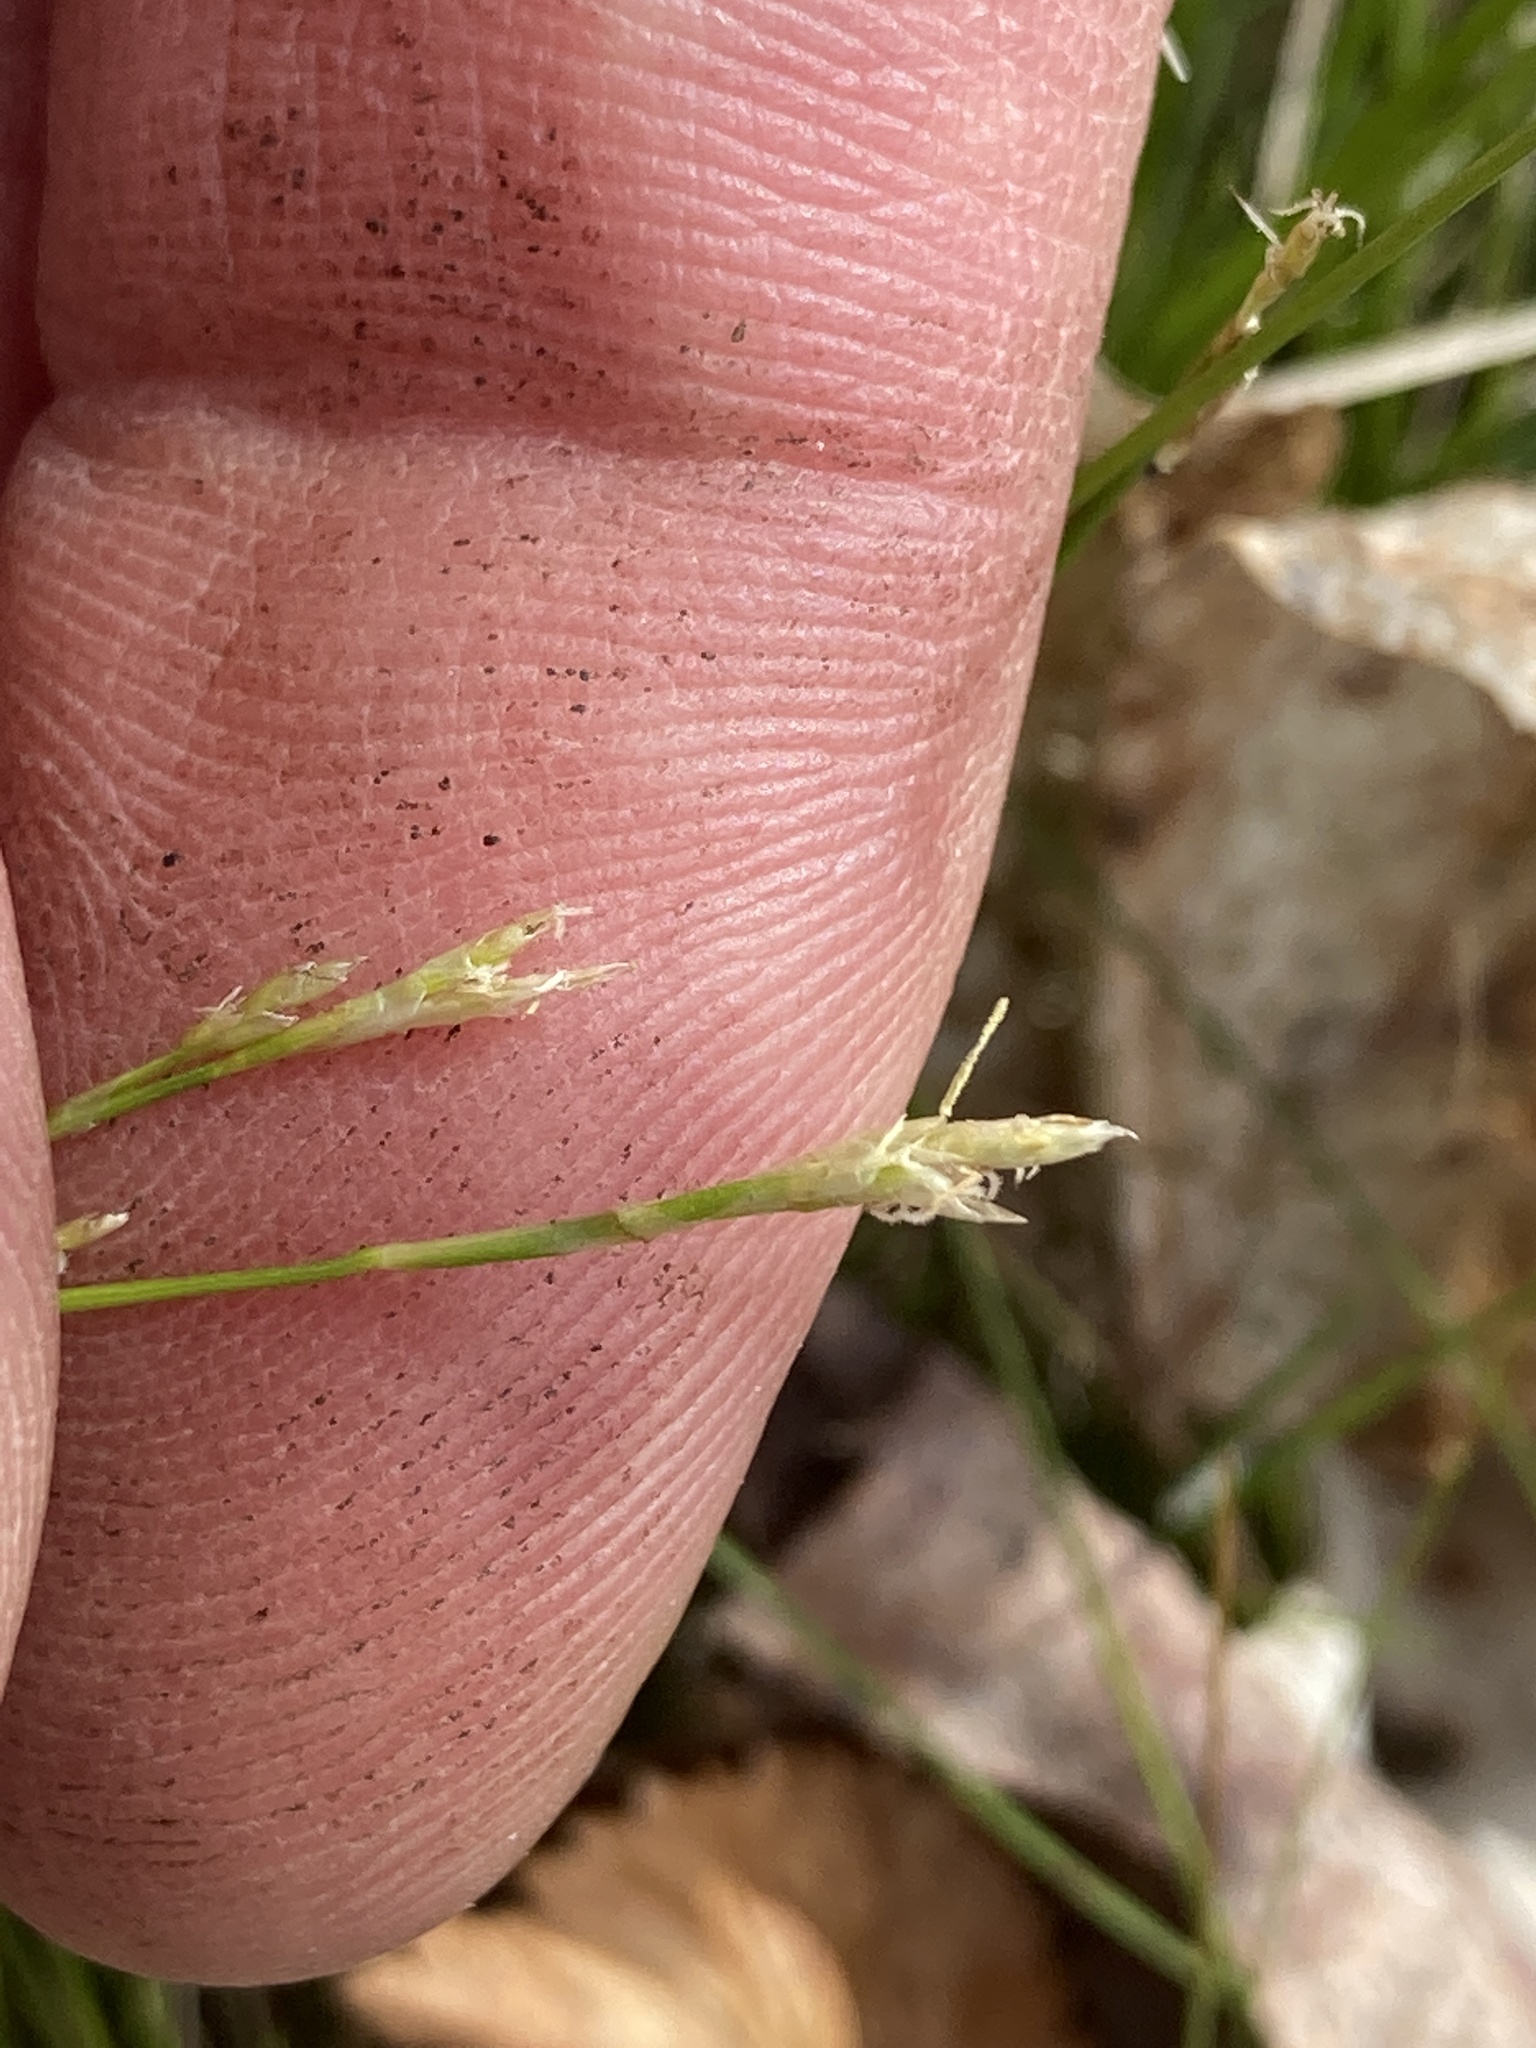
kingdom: Plantae
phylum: Tracheophyta
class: Liliopsida
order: Poales
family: Cyperaceae
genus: Carex
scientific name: Carex eburnea
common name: Bristle-leaved sedge
